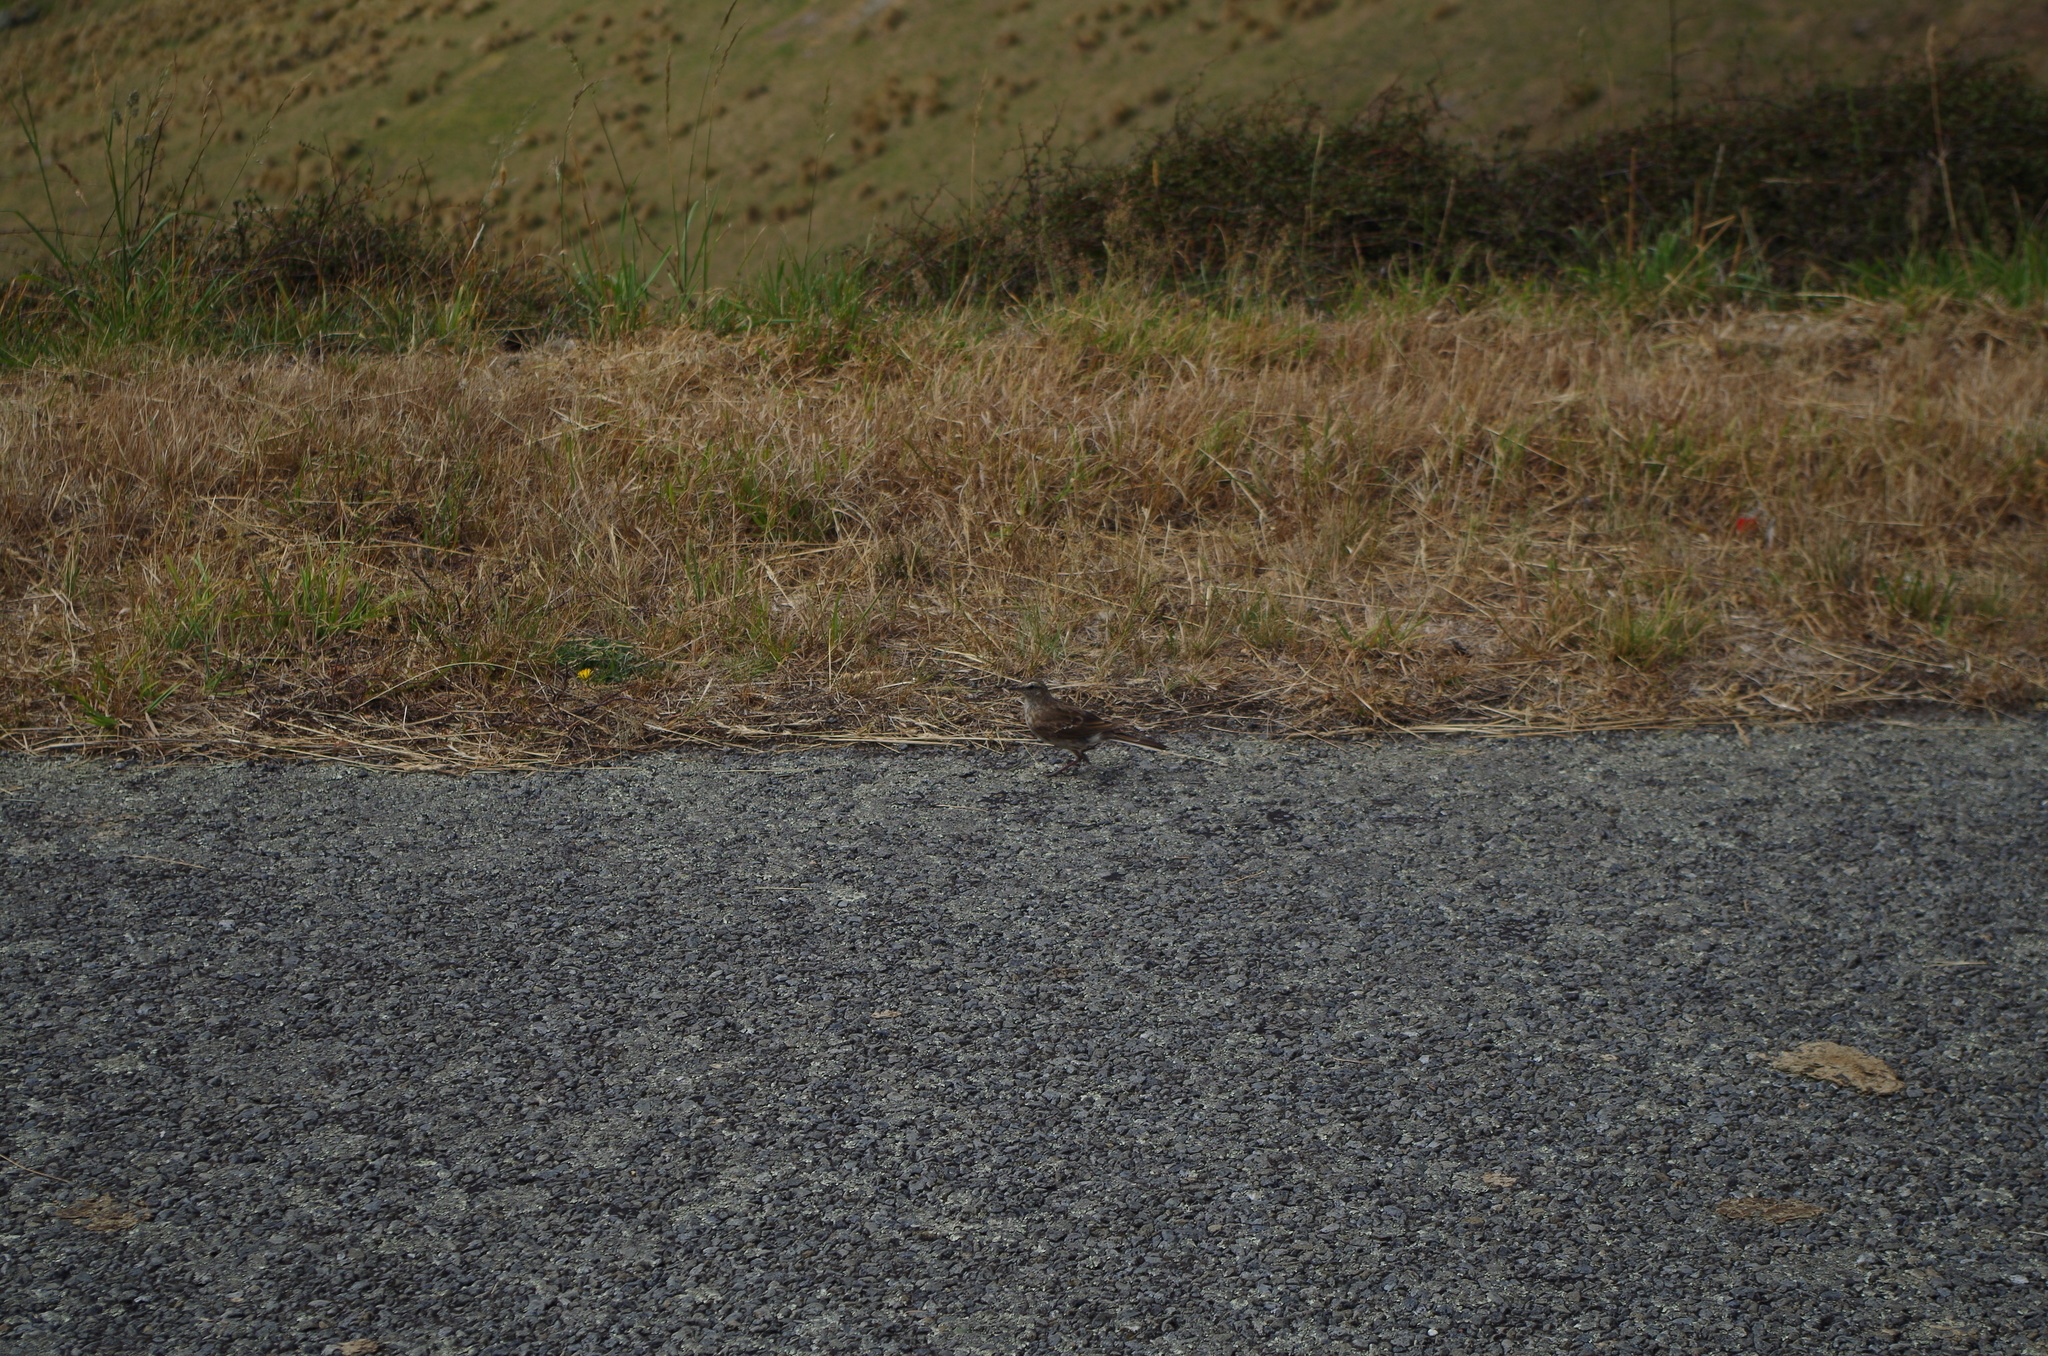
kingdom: Animalia
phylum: Chordata
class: Aves
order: Passeriformes
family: Motacillidae
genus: Anthus
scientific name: Anthus novaeseelandiae
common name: New zealand pipit
